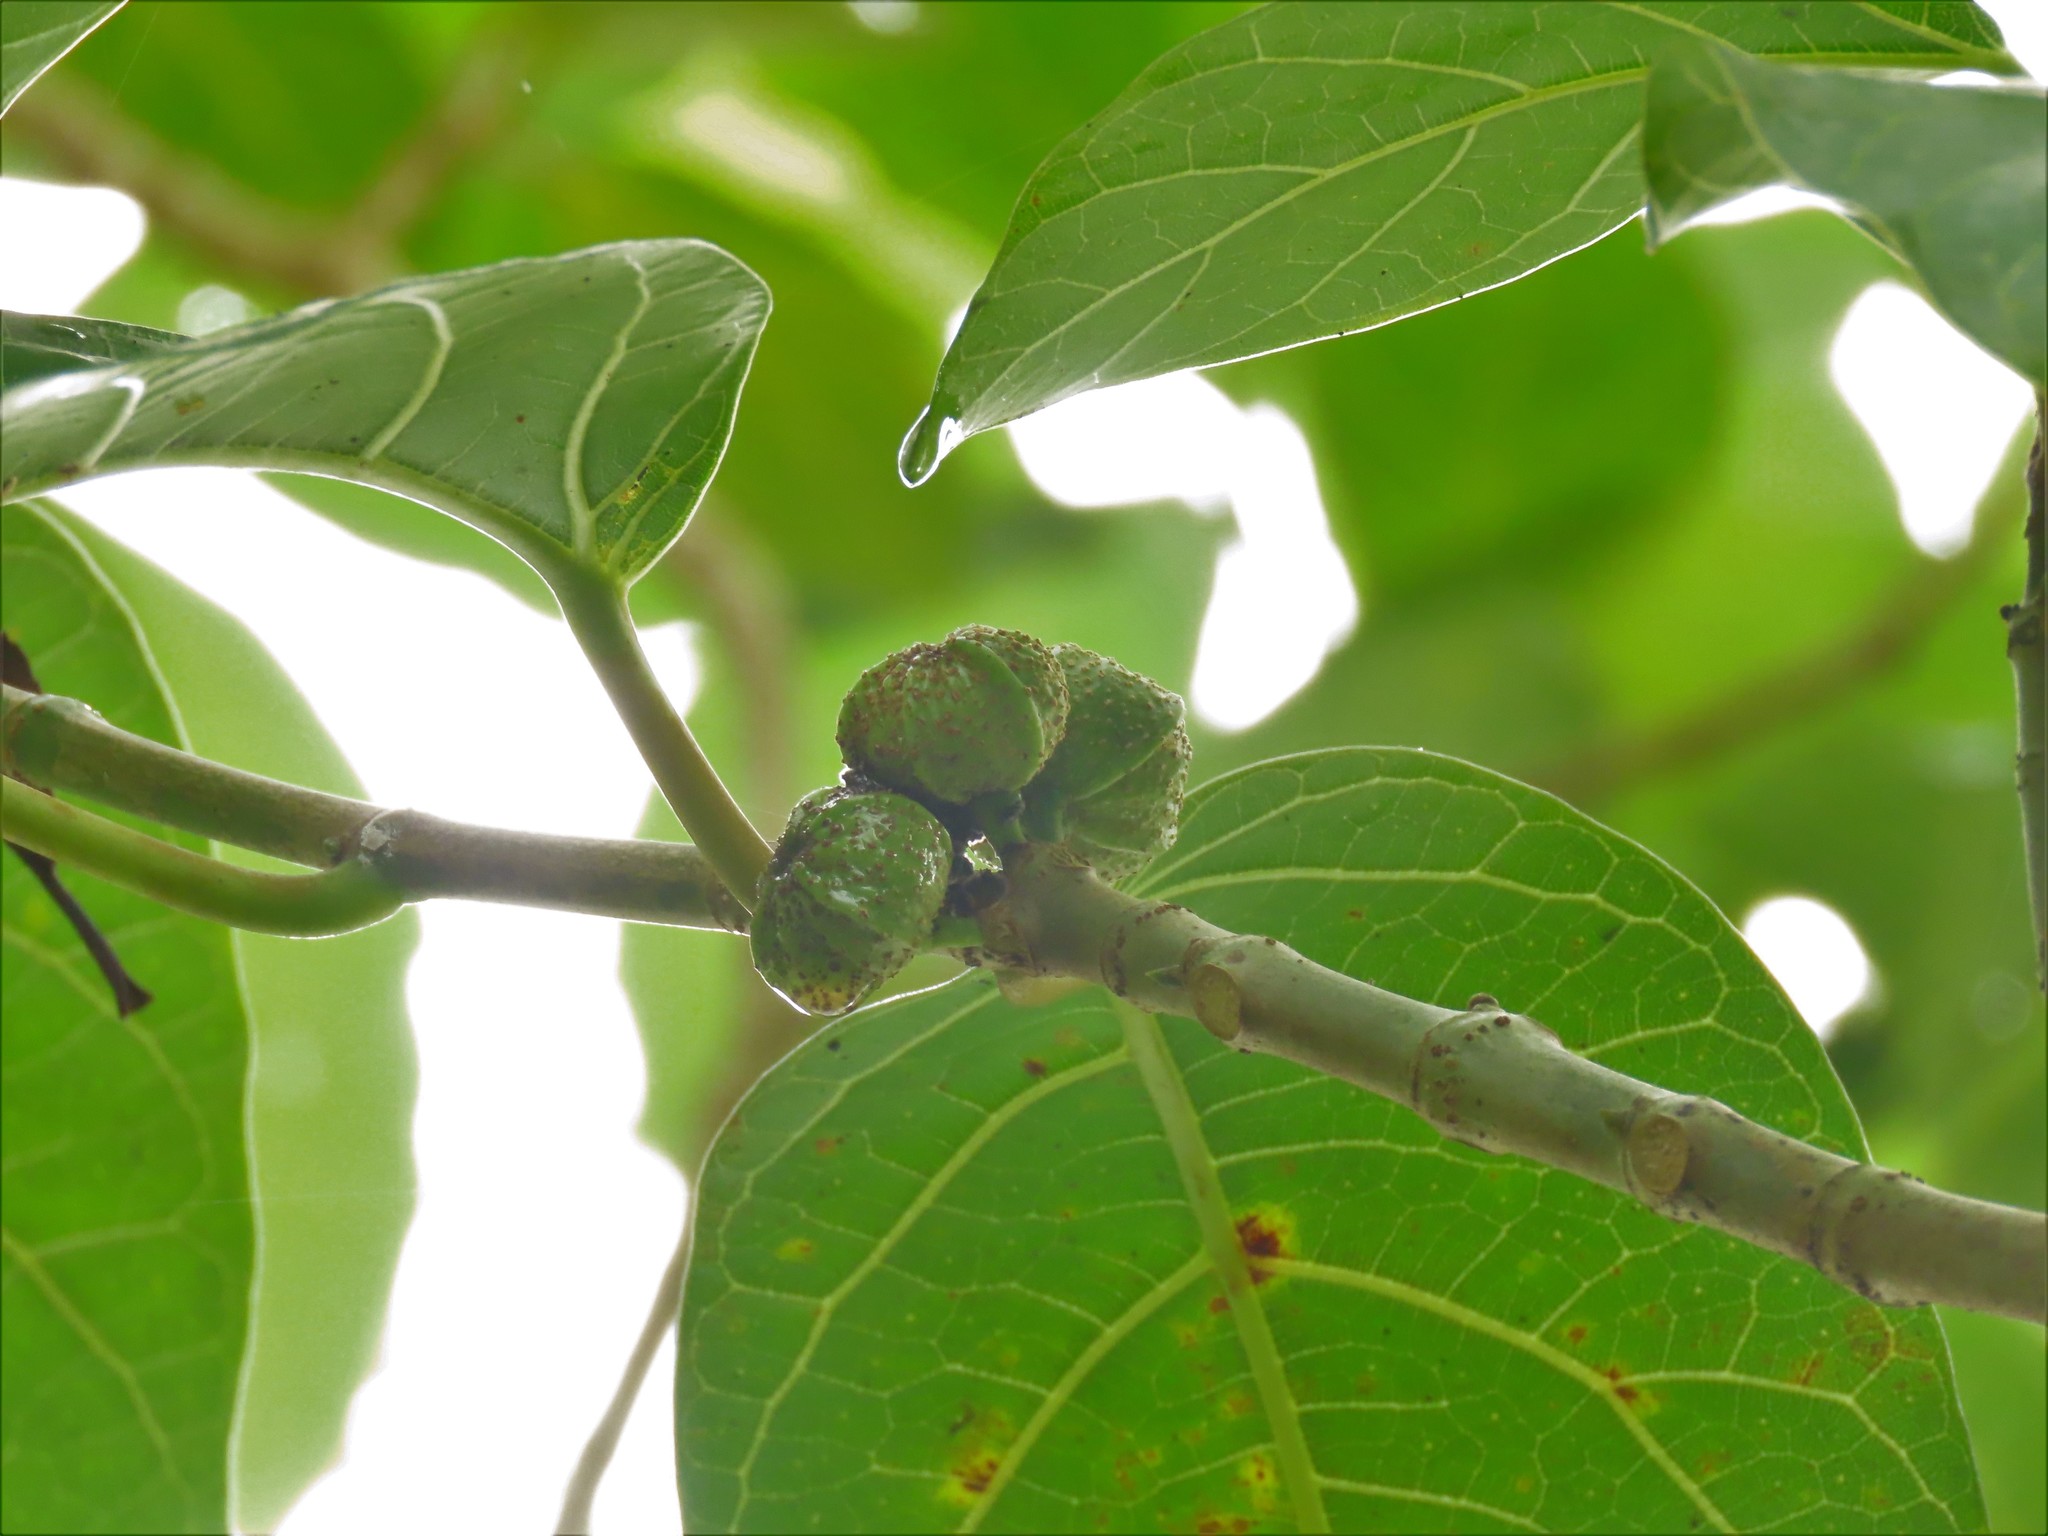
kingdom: Plantae
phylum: Tracheophyta
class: Magnoliopsida
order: Rosales
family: Moraceae
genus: Ficus
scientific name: Ficus septica
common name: Septic fig
